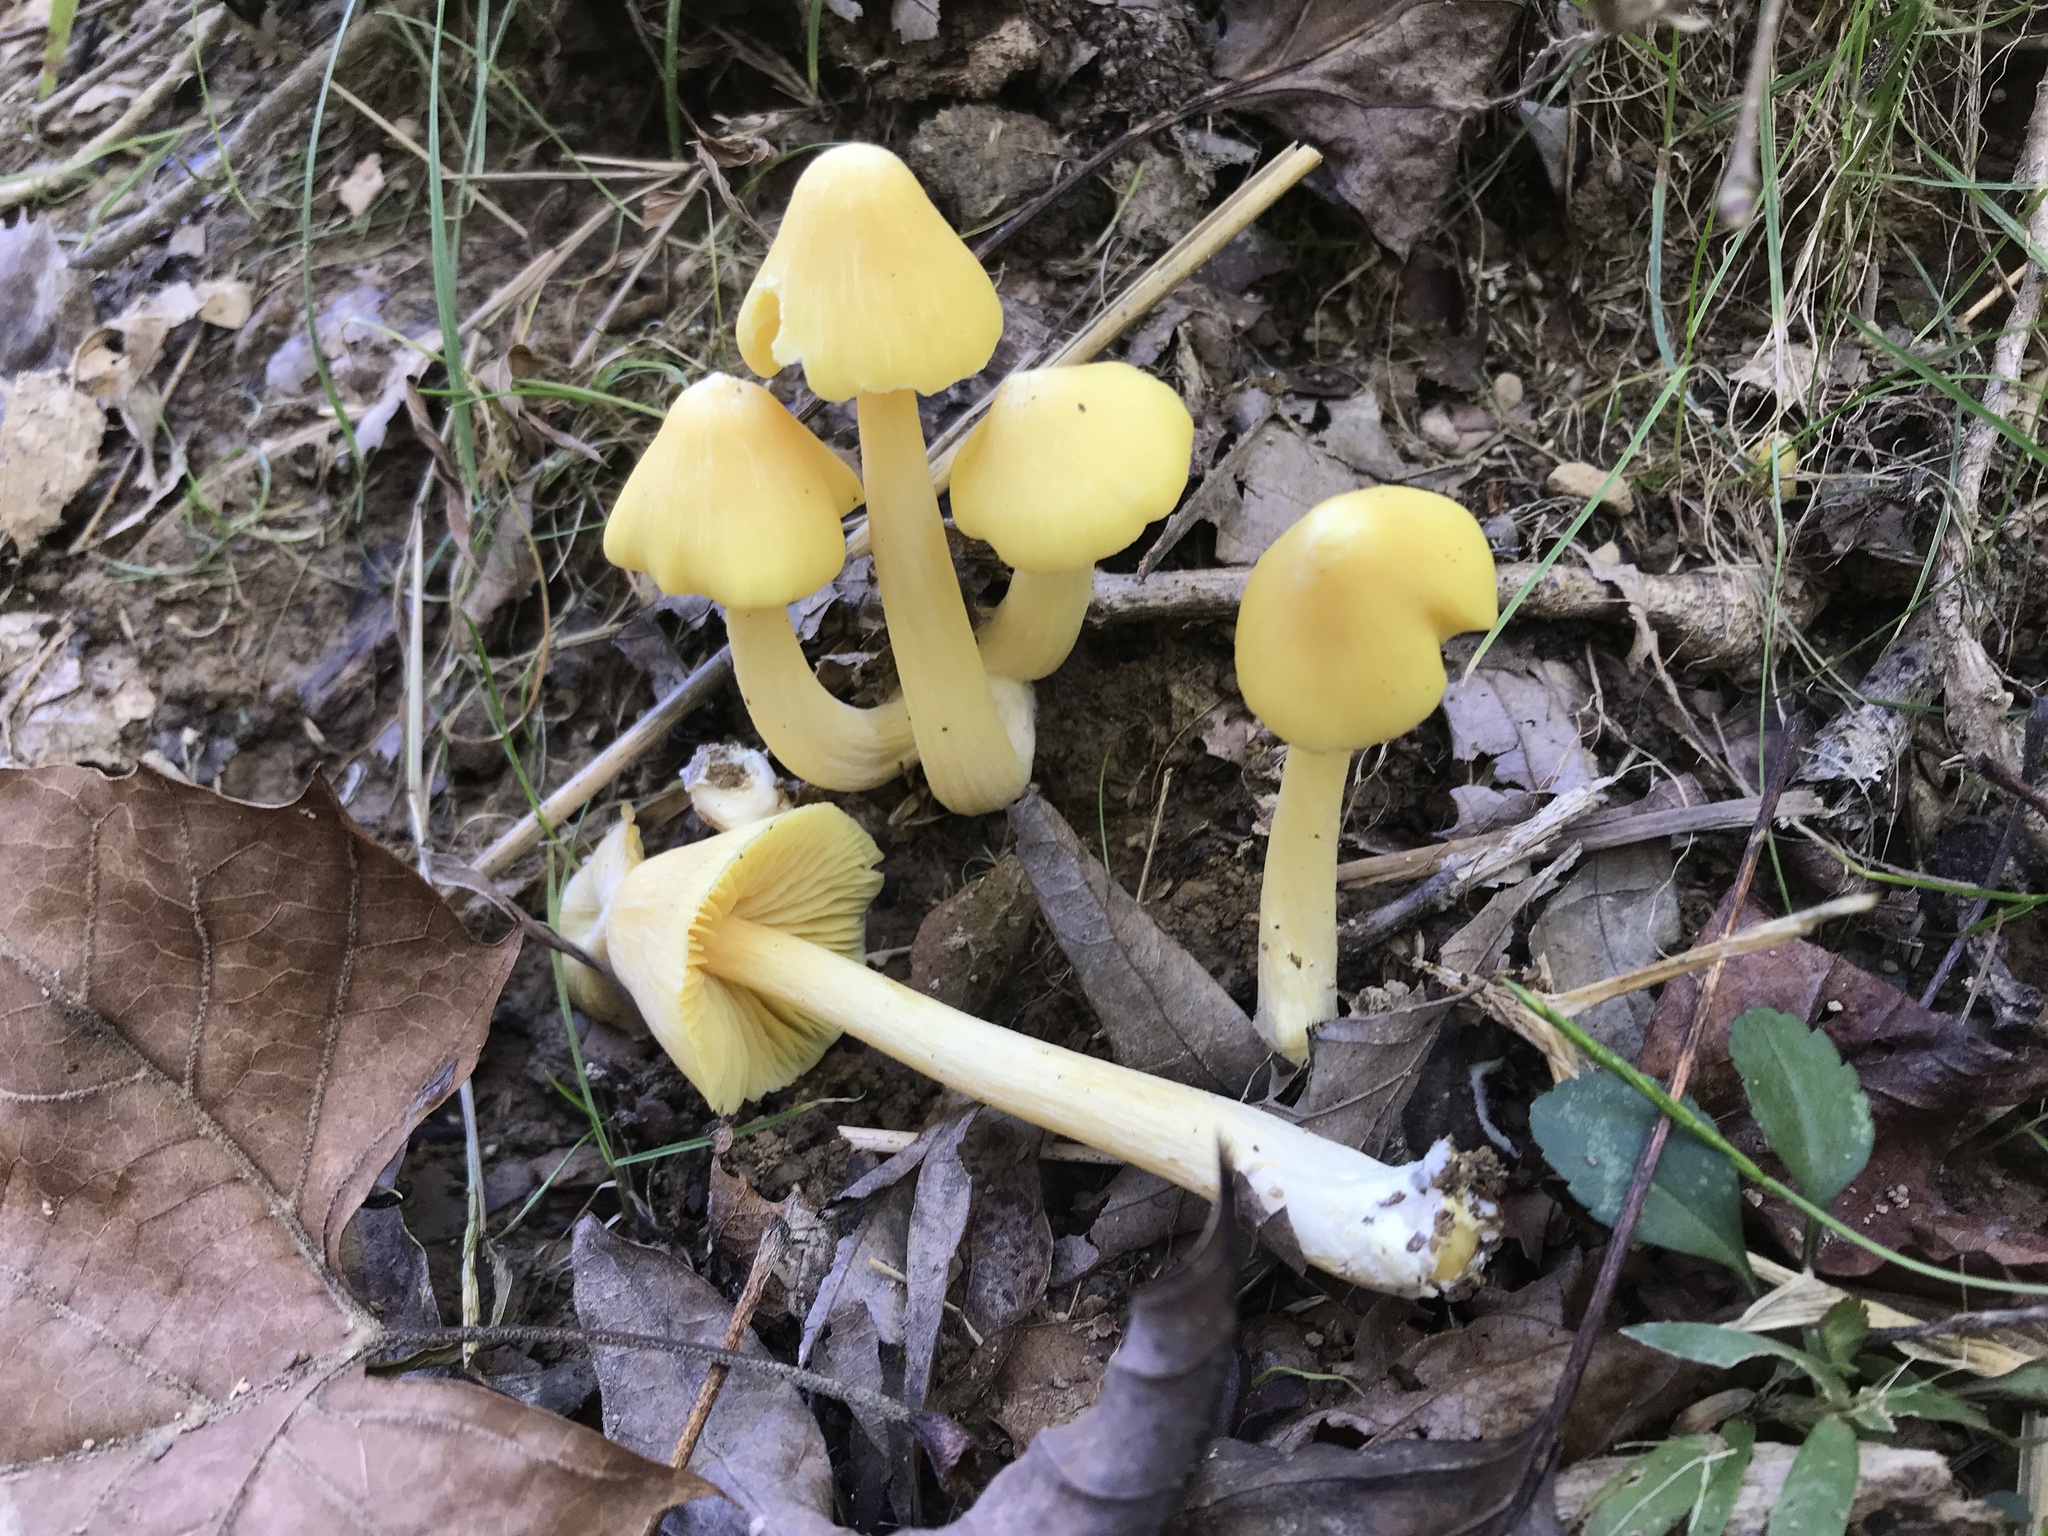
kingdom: Fungi
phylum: Basidiomycota
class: Agaricomycetes
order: Agaricales
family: Entolomataceae
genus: Entoloma
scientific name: Entoloma murrayi
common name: Yellow unicorn entoloma
